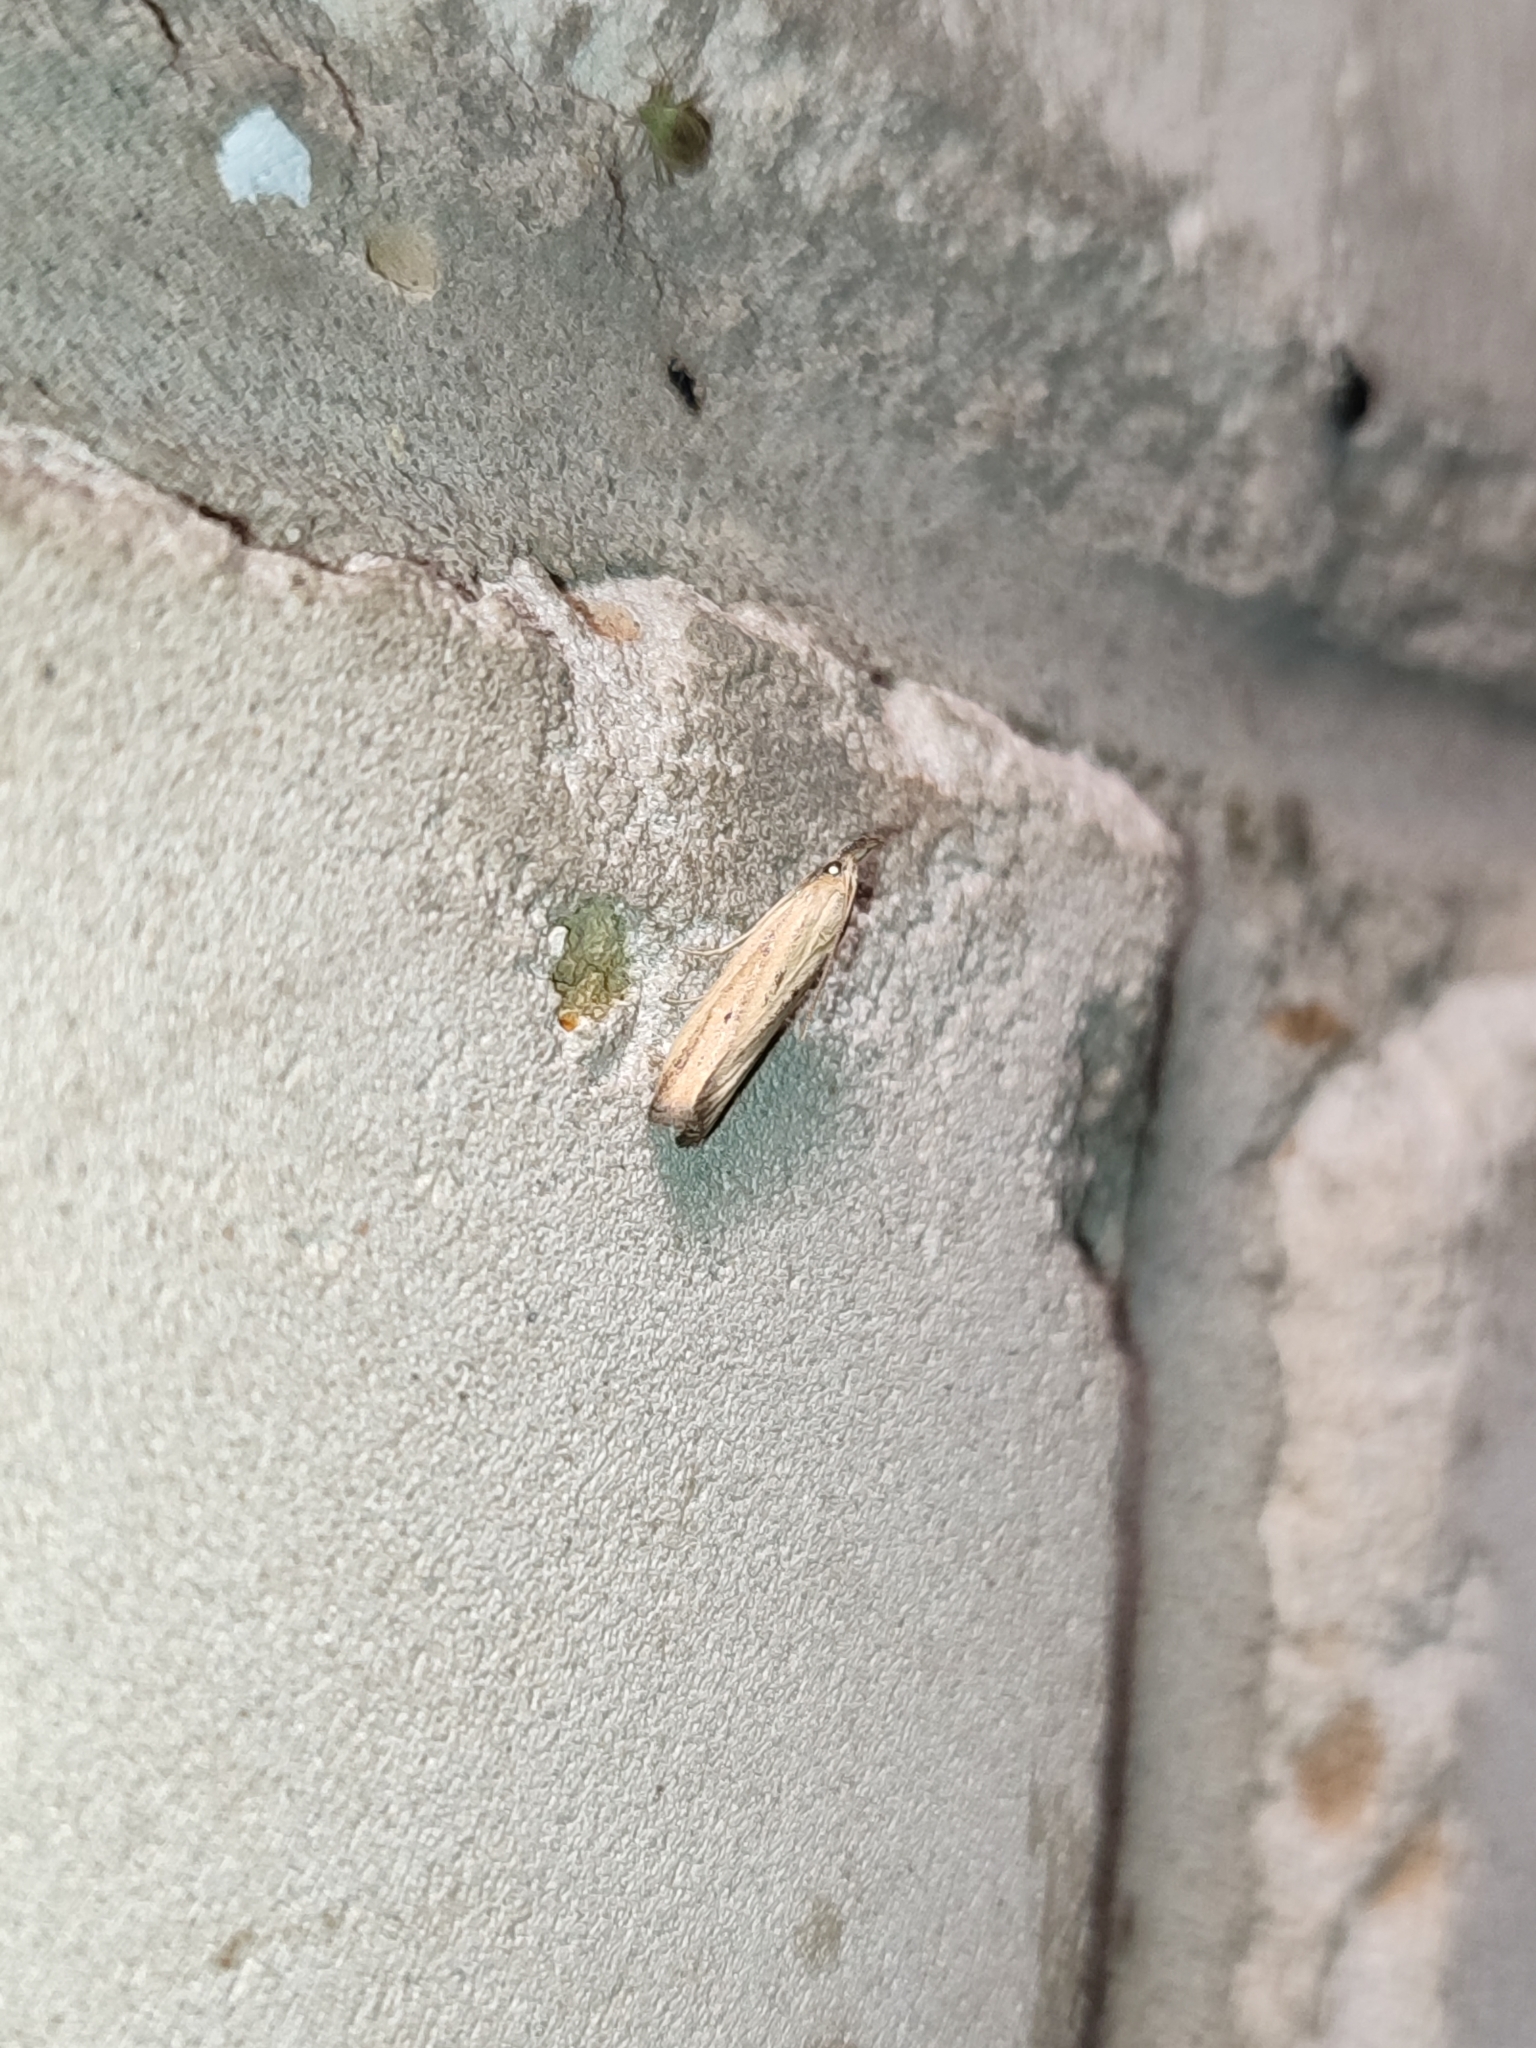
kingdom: Animalia
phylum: Arthropoda
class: Insecta
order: Lepidoptera
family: Pyralidae
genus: Hypsotropa
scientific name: Hypsotropa unipunctella
